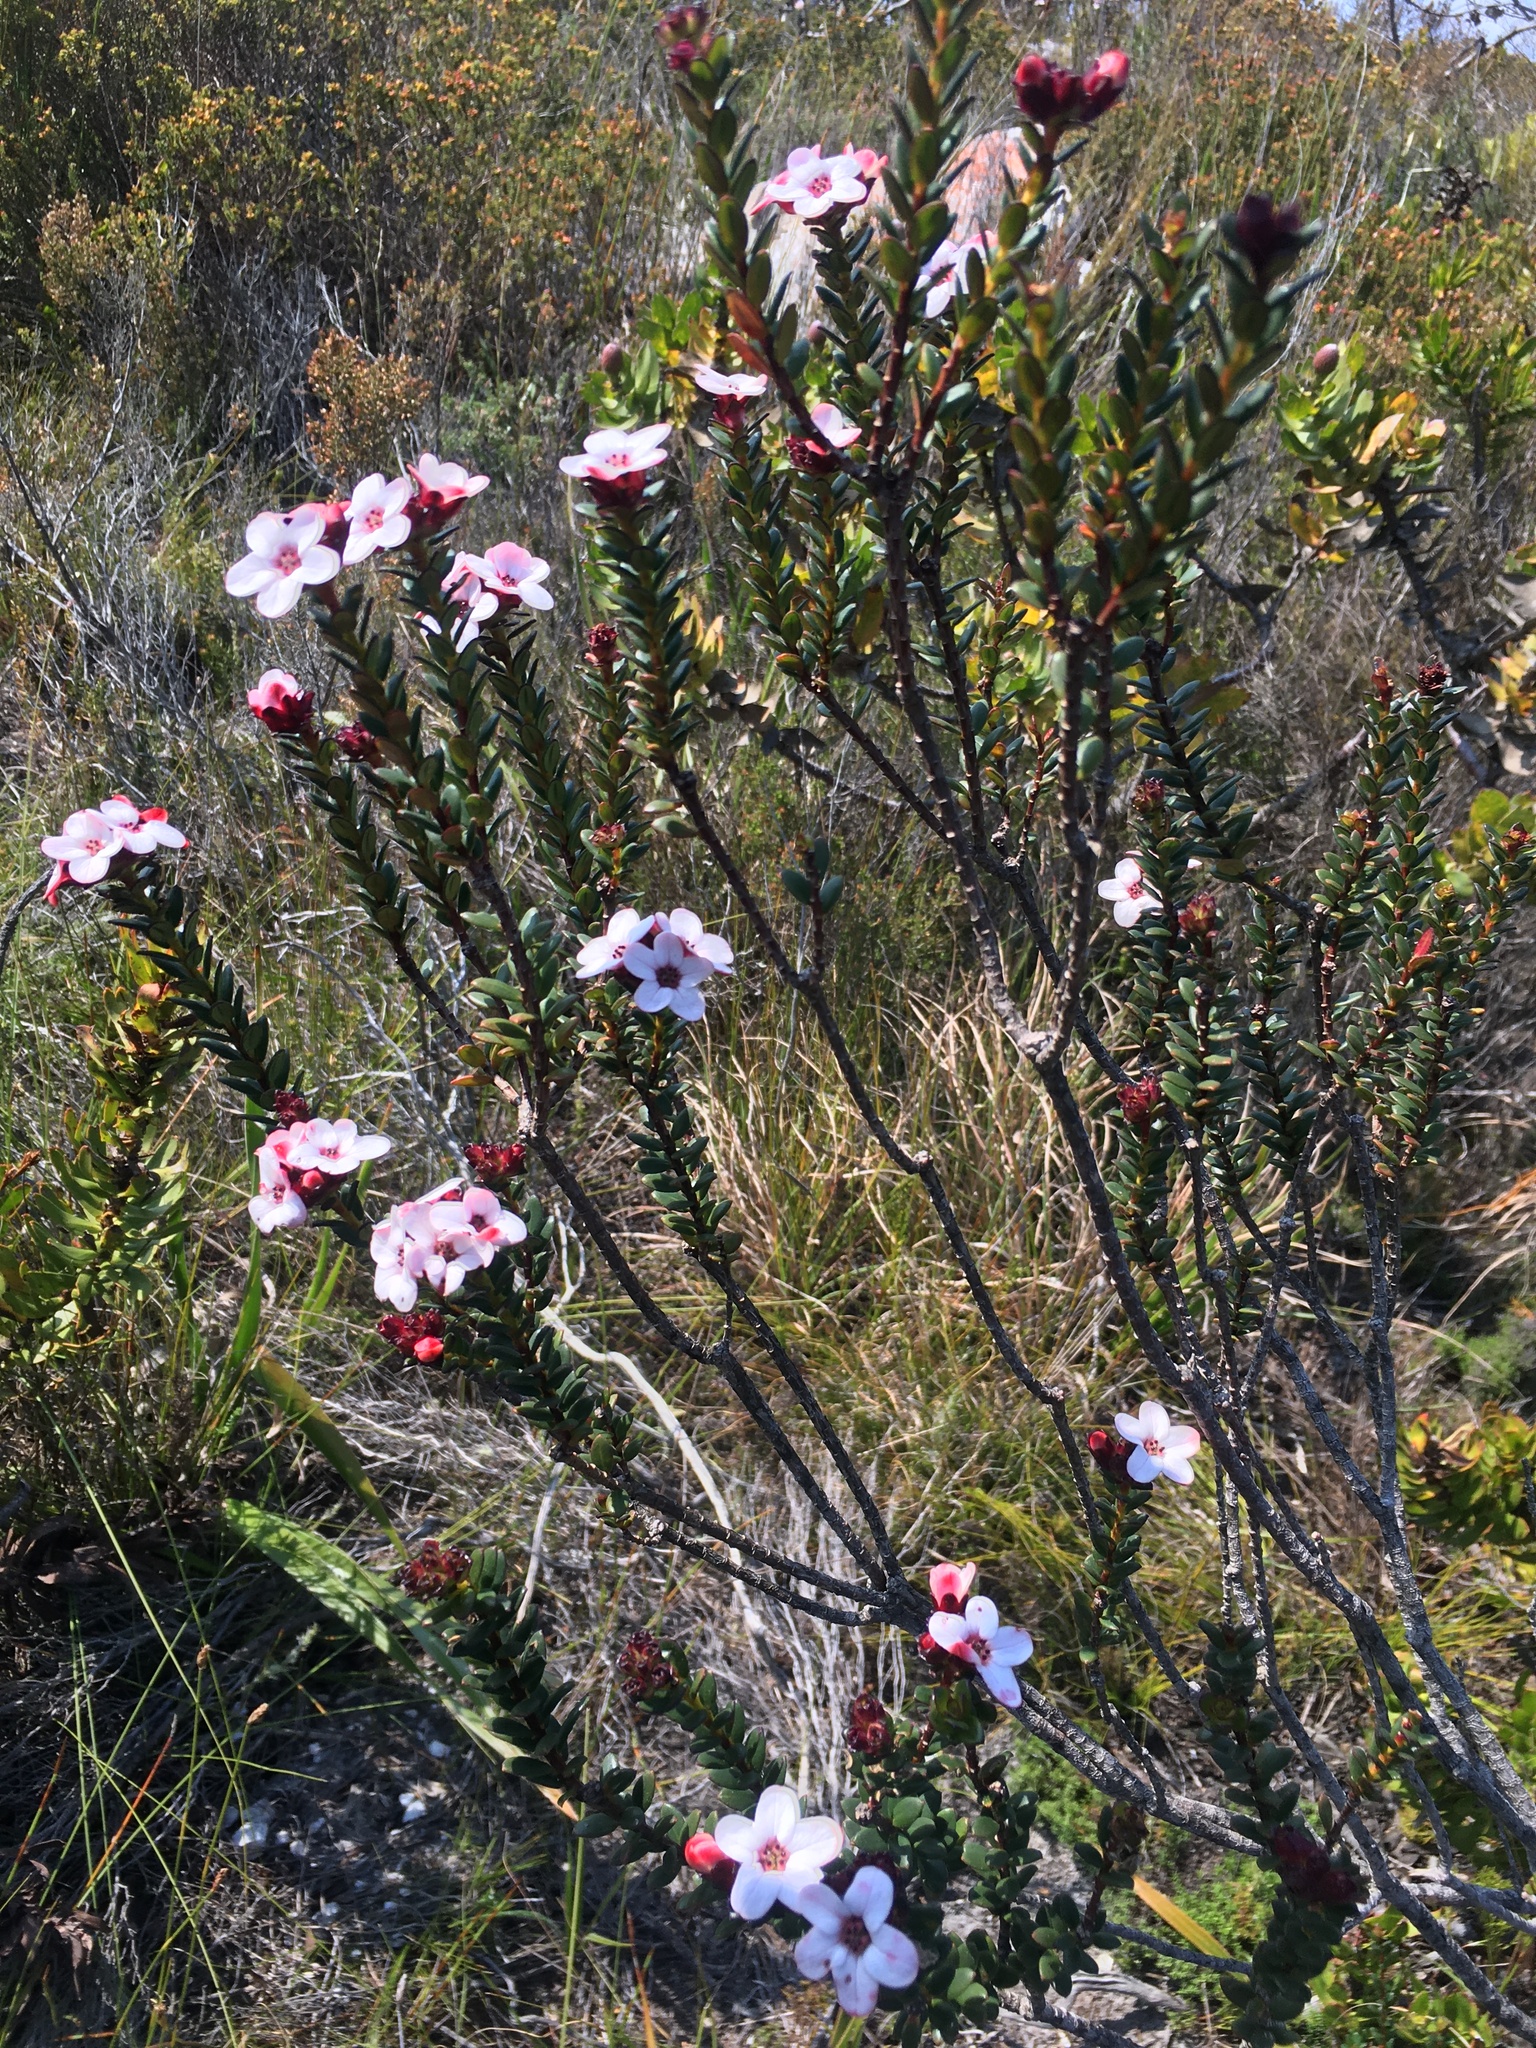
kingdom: Plantae
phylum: Tracheophyta
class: Magnoliopsida
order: Sapindales
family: Rutaceae
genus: Adenandra
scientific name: Adenandra uniflora
